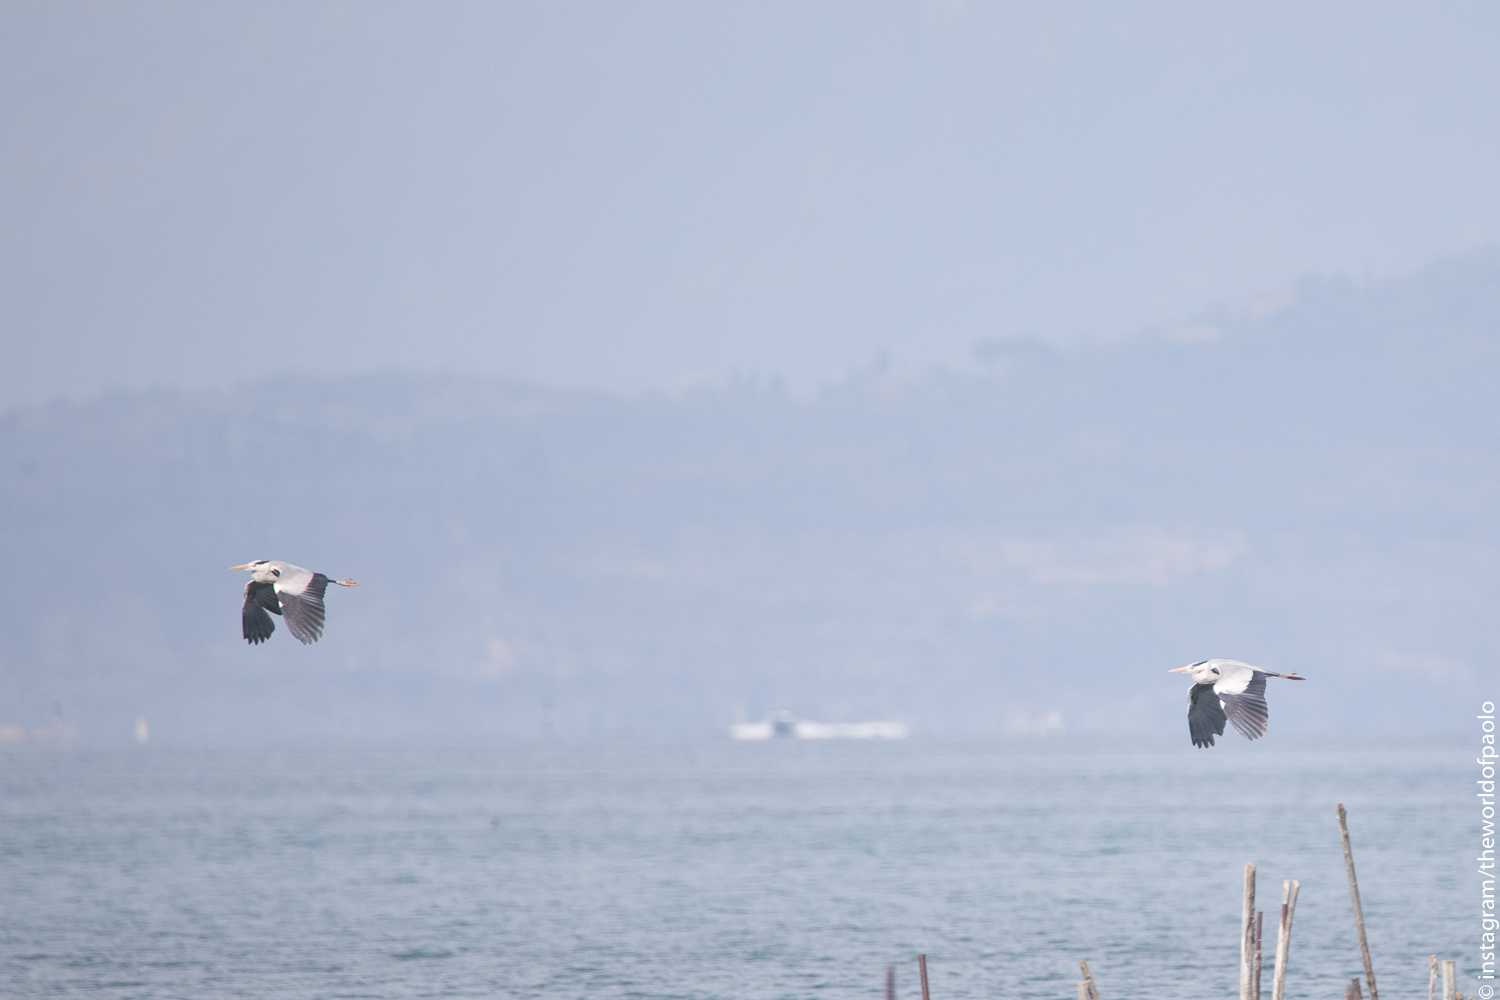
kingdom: Animalia
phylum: Chordata
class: Aves
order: Pelecaniformes
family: Ardeidae
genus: Ardea
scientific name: Ardea cinerea
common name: Grey heron
